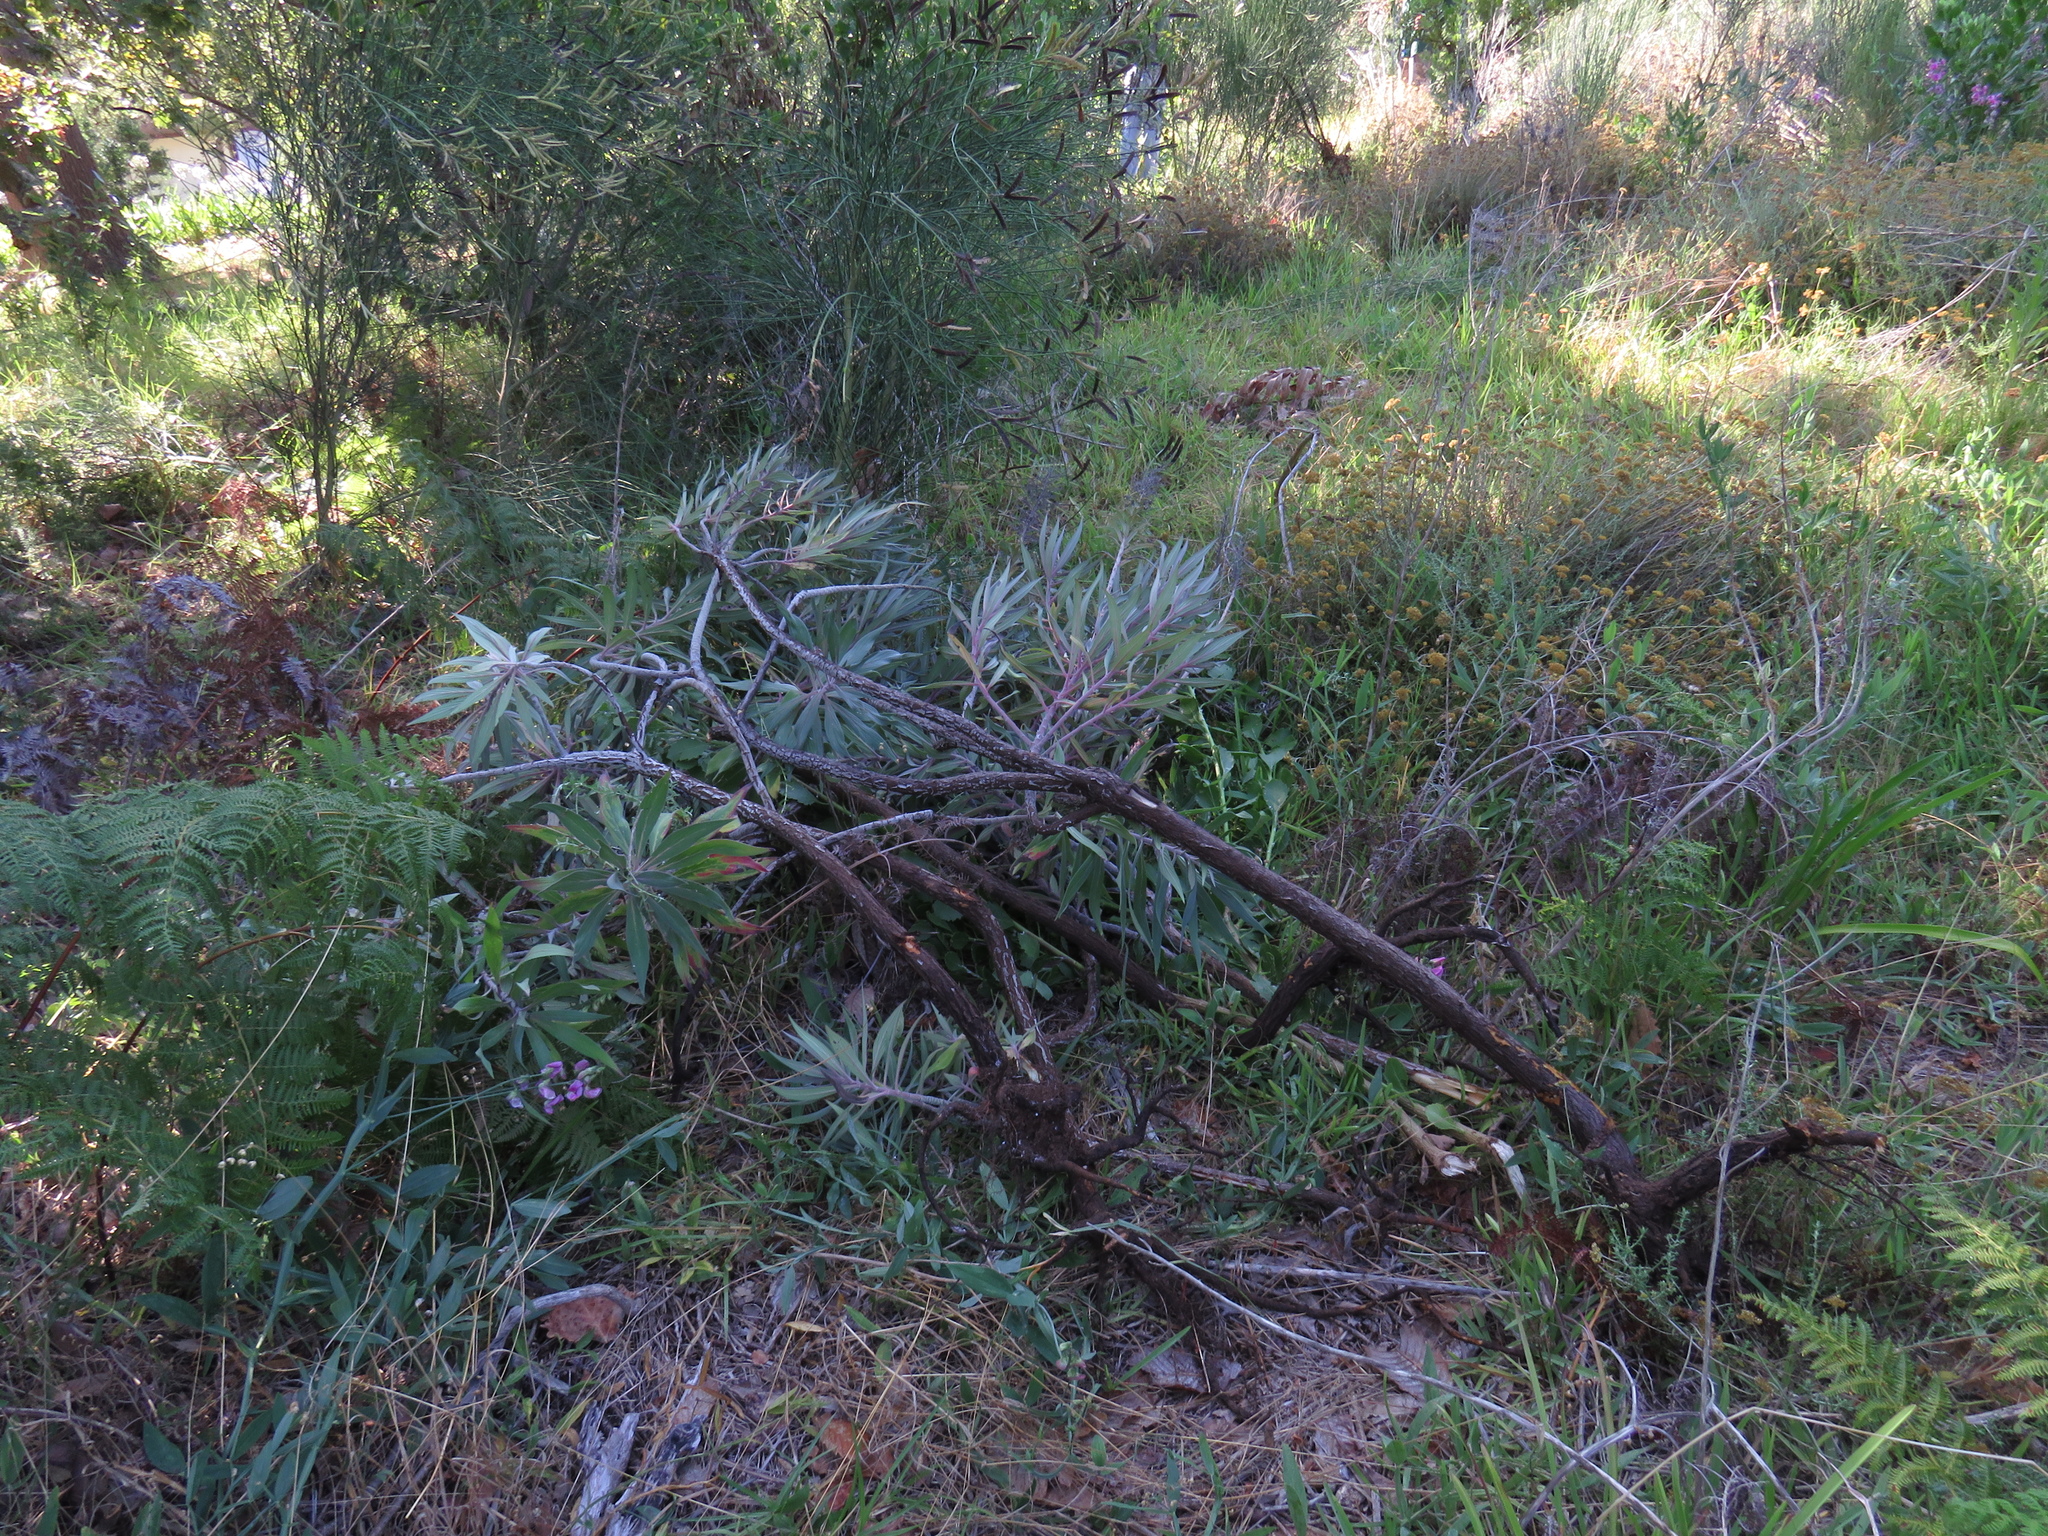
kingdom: Plantae
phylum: Tracheophyta
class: Magnoliopsida
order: Boraginales
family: Boraginaceae
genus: Echium
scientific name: Echium candicans
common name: Pride of madeira
